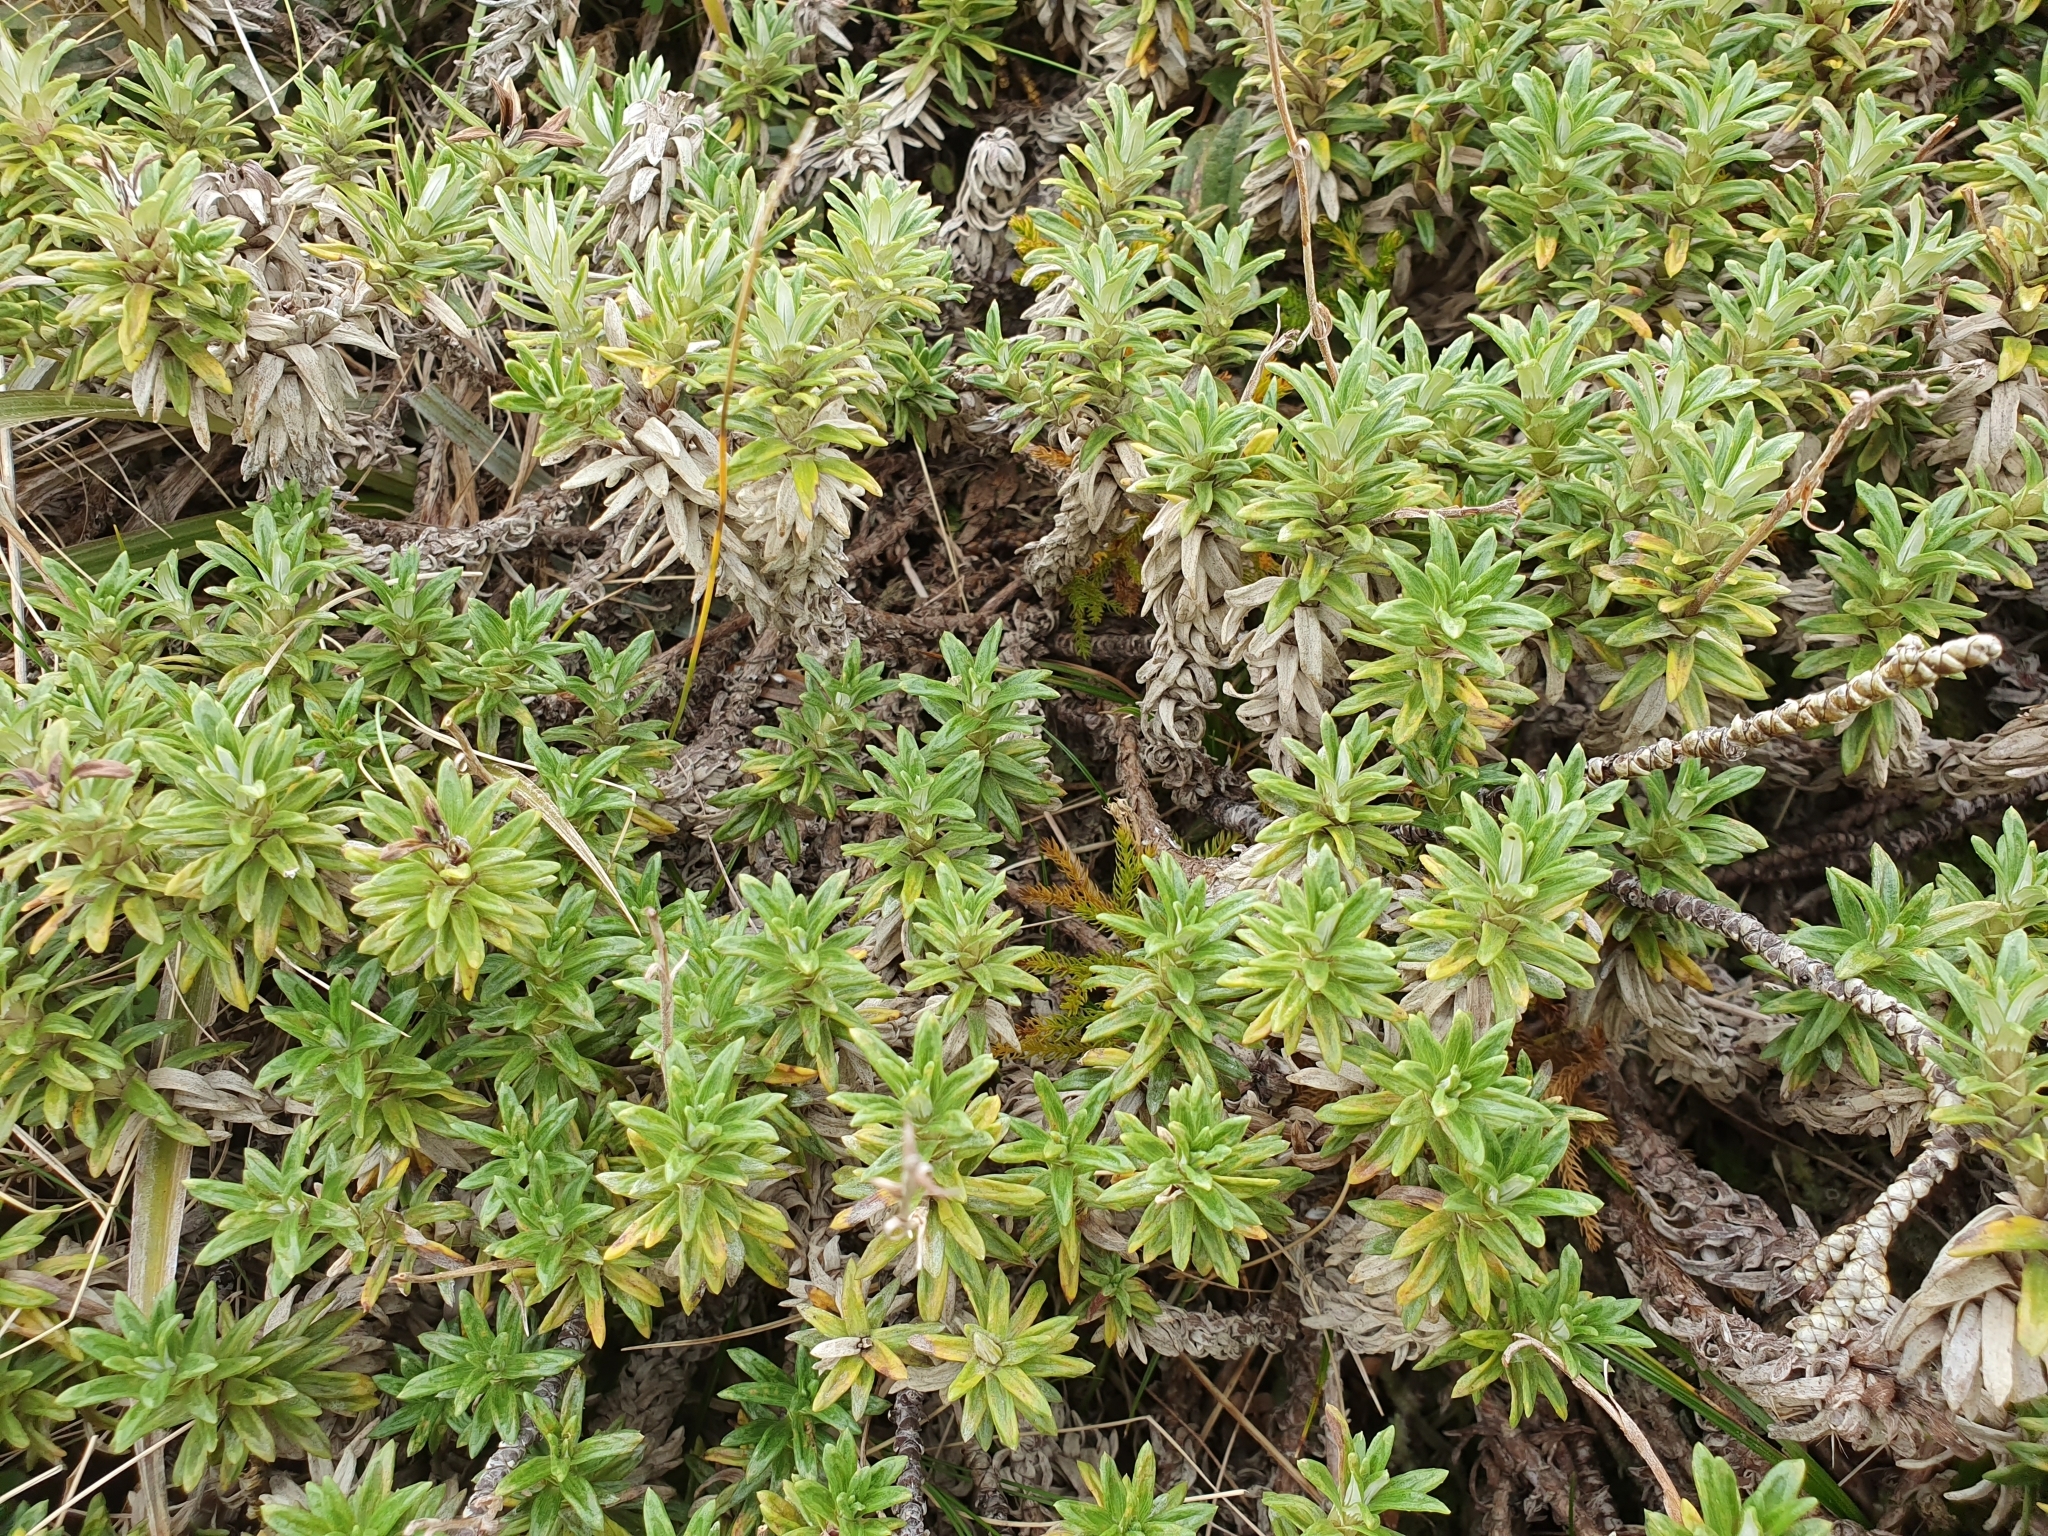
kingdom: Plantae
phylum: Tracheophyta
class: Magnoliopsida
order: Asterales
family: Asteraceae
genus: Celmisia
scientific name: Celmisia walkeri
